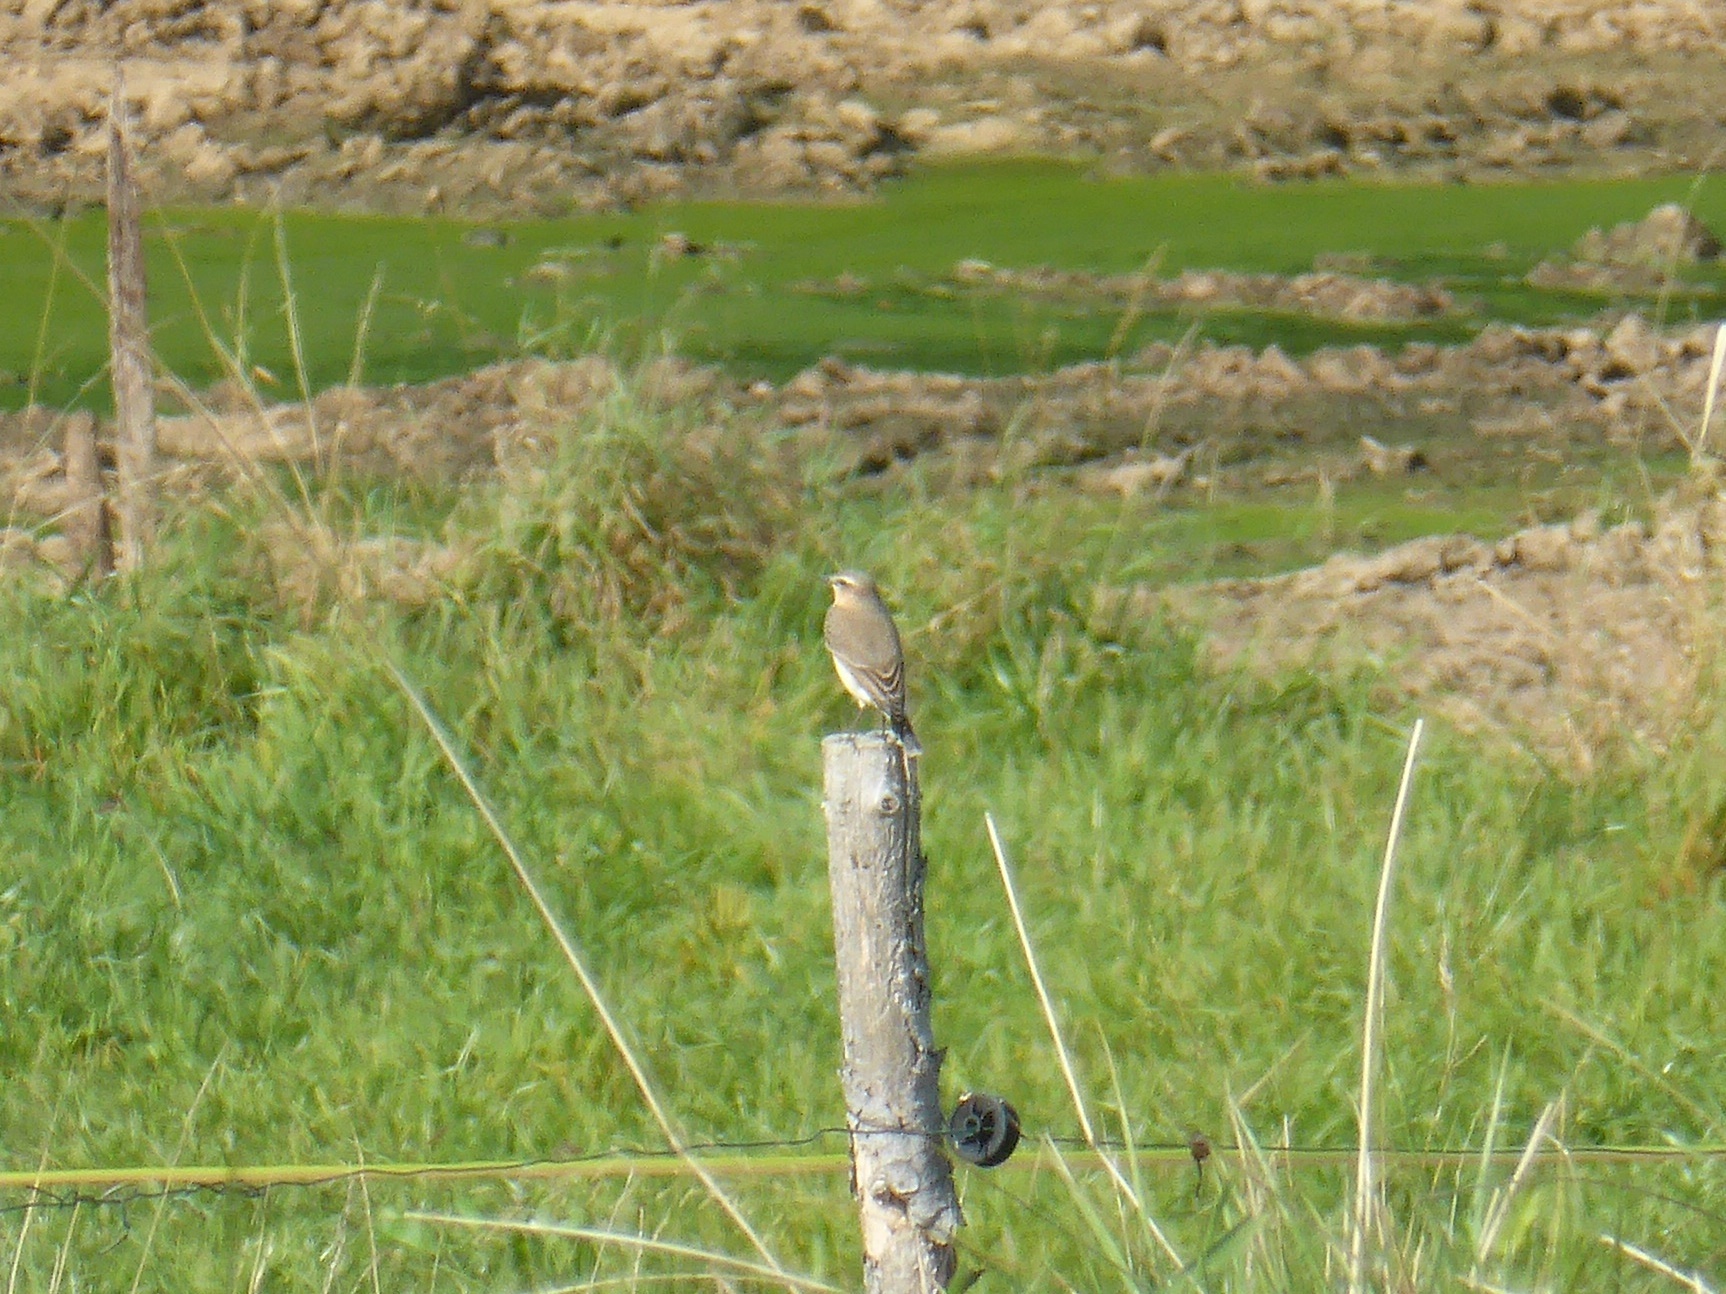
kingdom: Animalia
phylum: Chordata
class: Aves
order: Passeriformes
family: Muscicapidae
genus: Oenanthe
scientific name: Oenanthe oenanthe
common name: Northern wheatear
